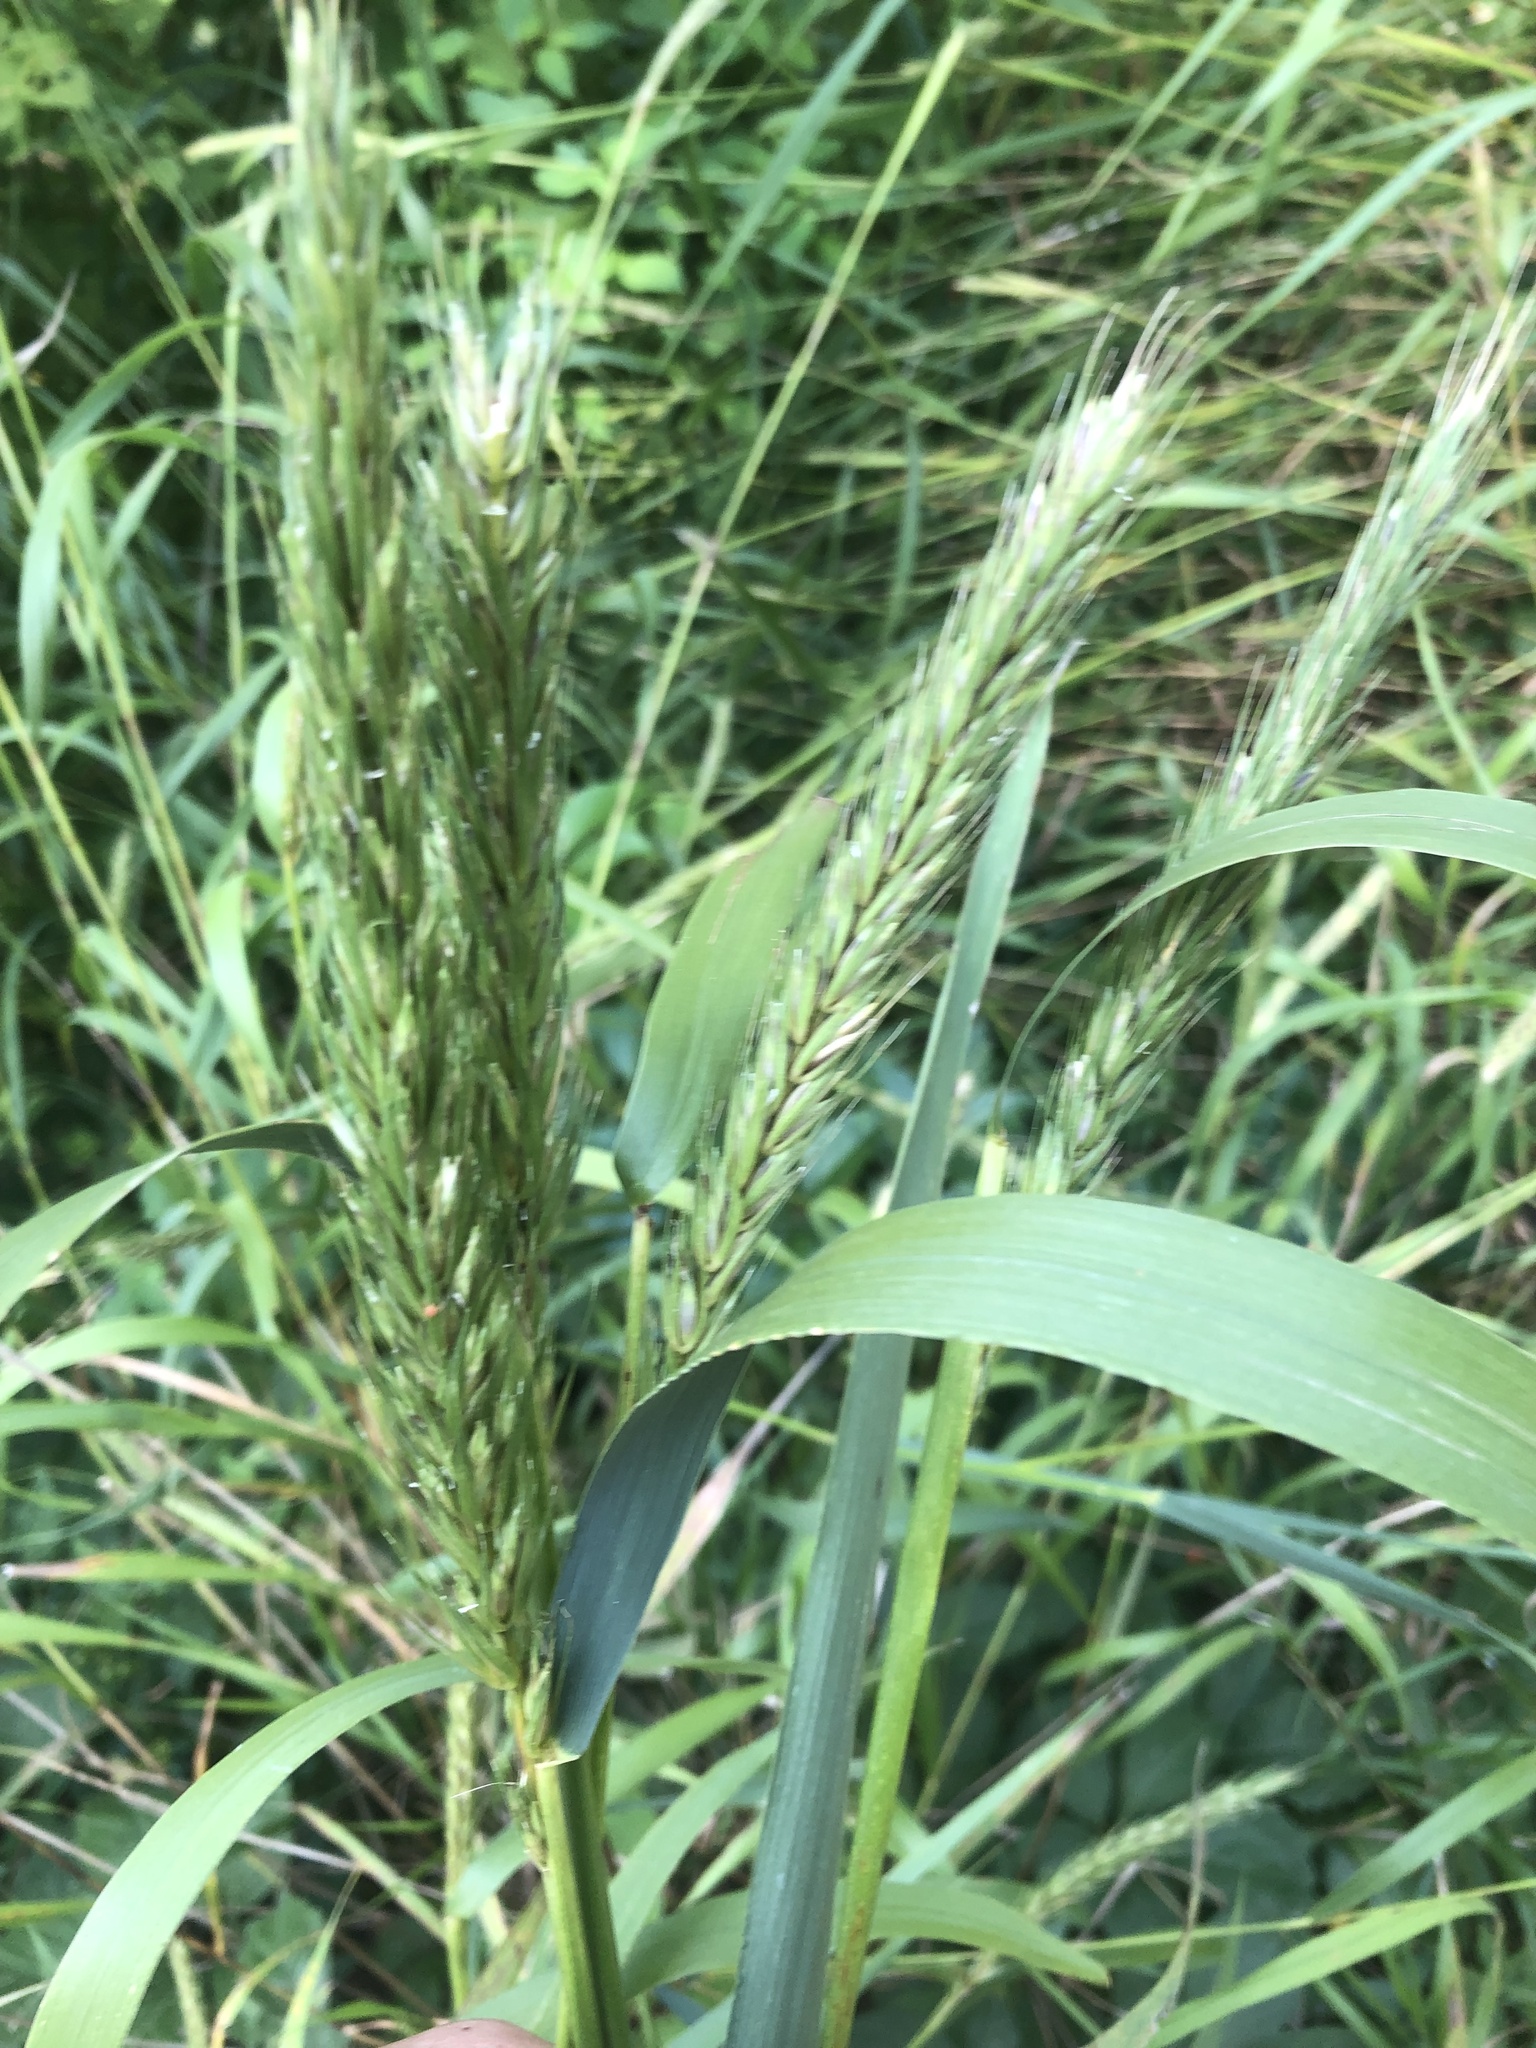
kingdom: Plantae
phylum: Tracheophyta
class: Liliopsida
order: Poales
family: Poaceae
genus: Elymus
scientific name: Elymus virginicus
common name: Common eastern wildrye
